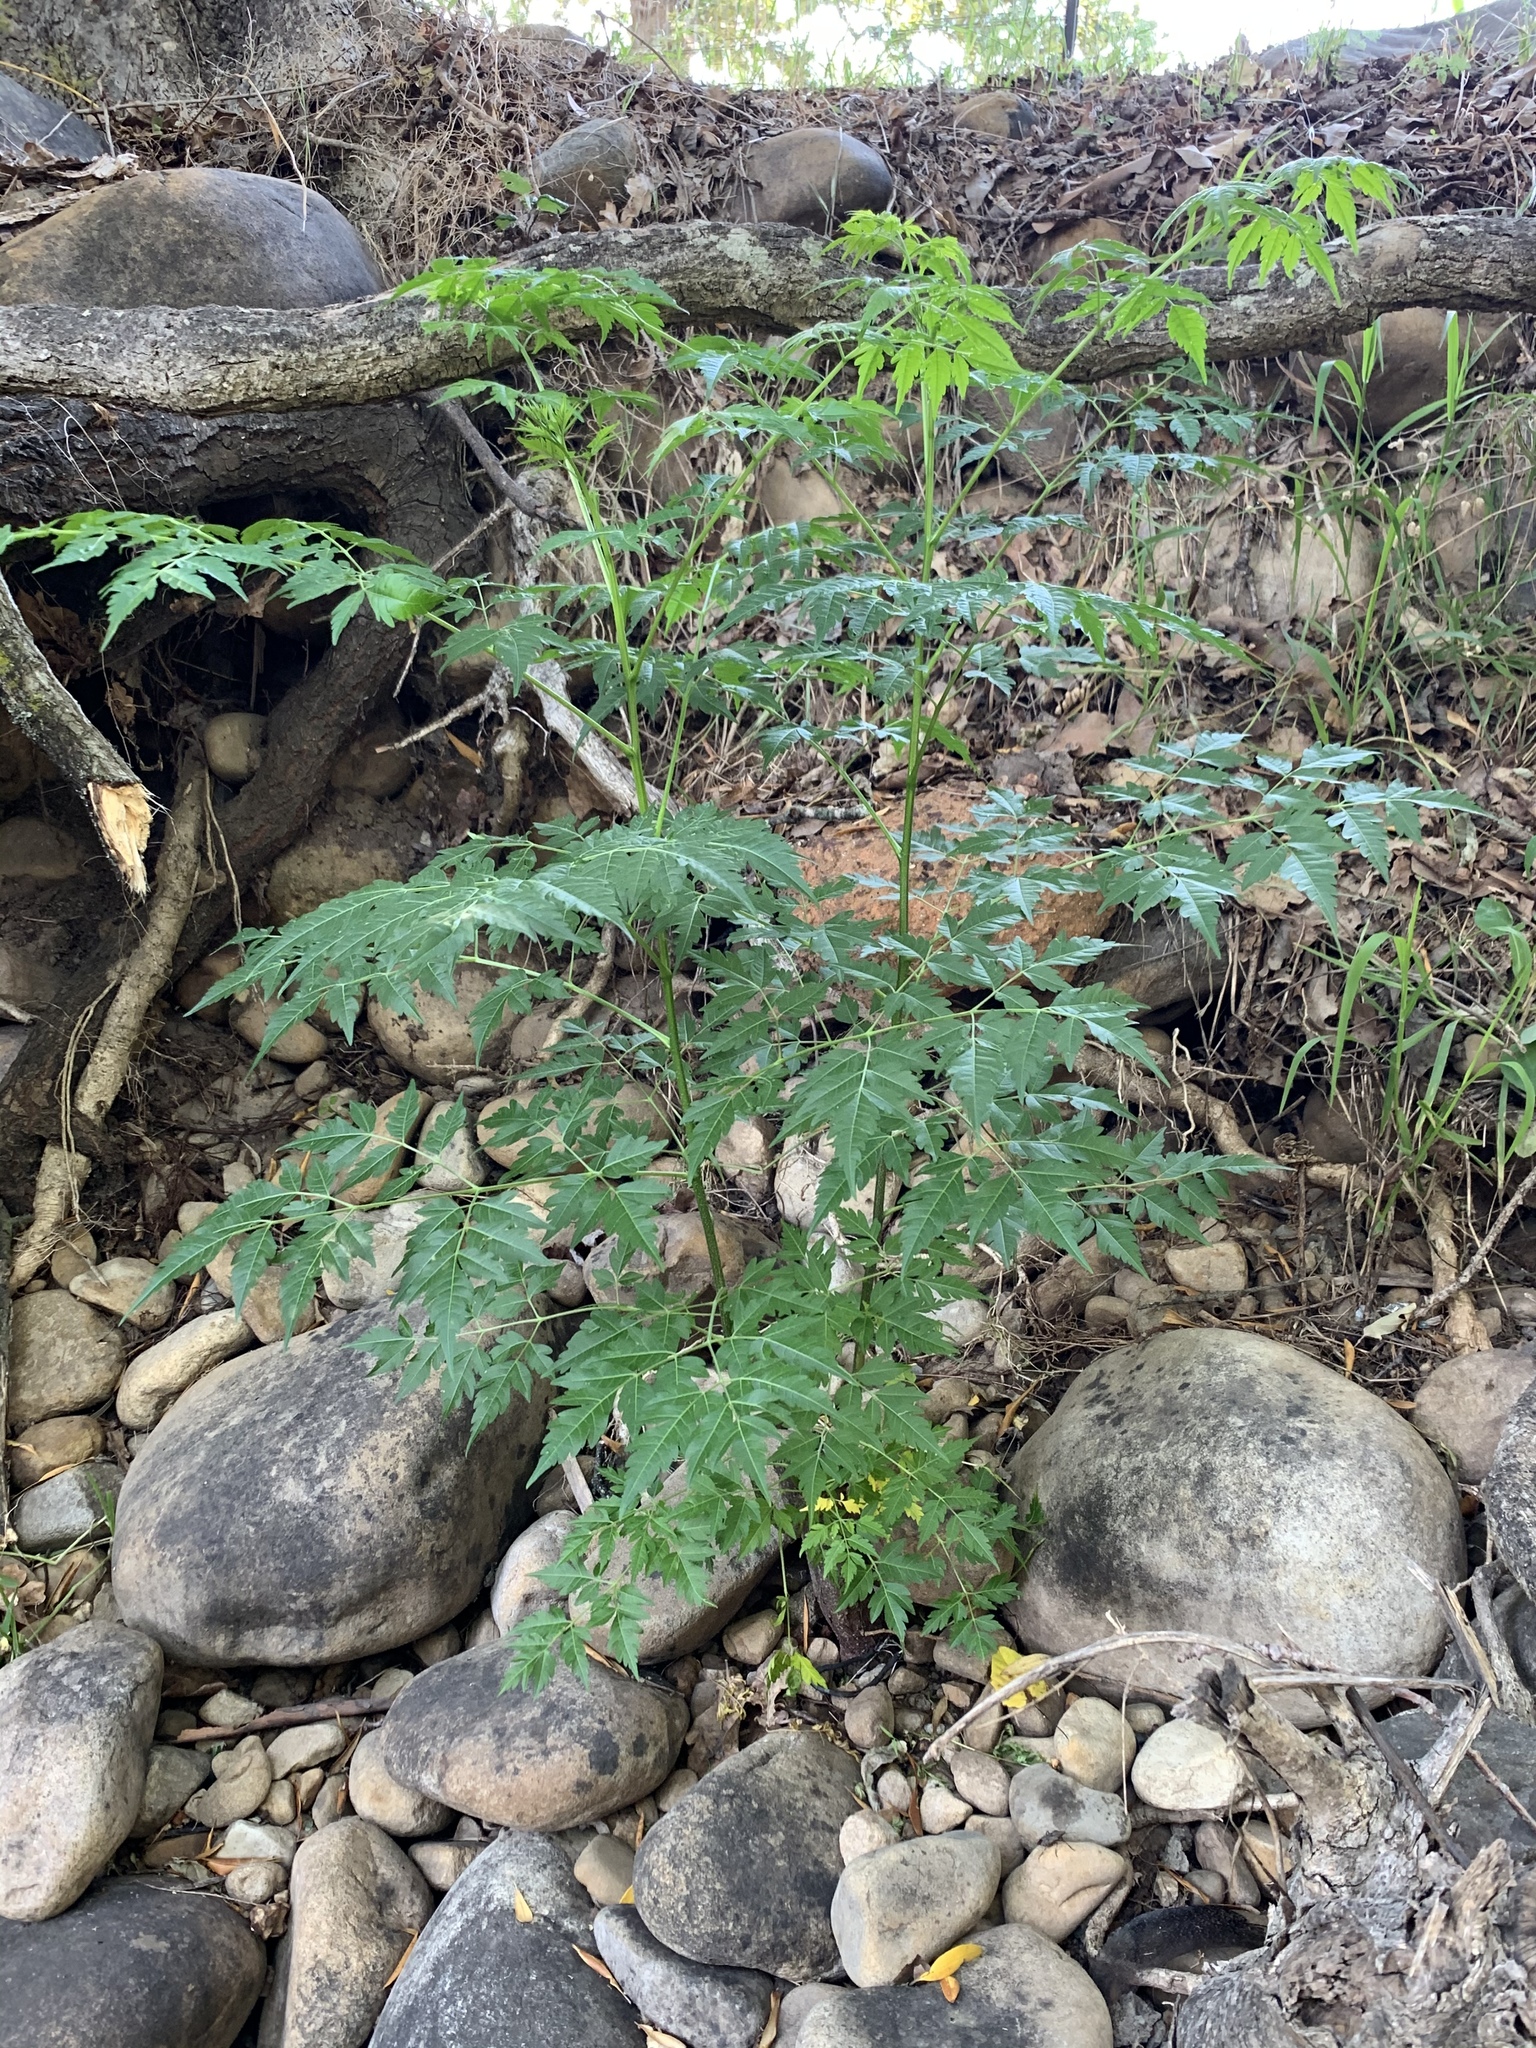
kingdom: Plantae
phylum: Tracheophyta
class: Magnoliopsida
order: Sapindales
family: Meliaceae
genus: Melia
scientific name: Melia azedarach
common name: Chinaberrytree
